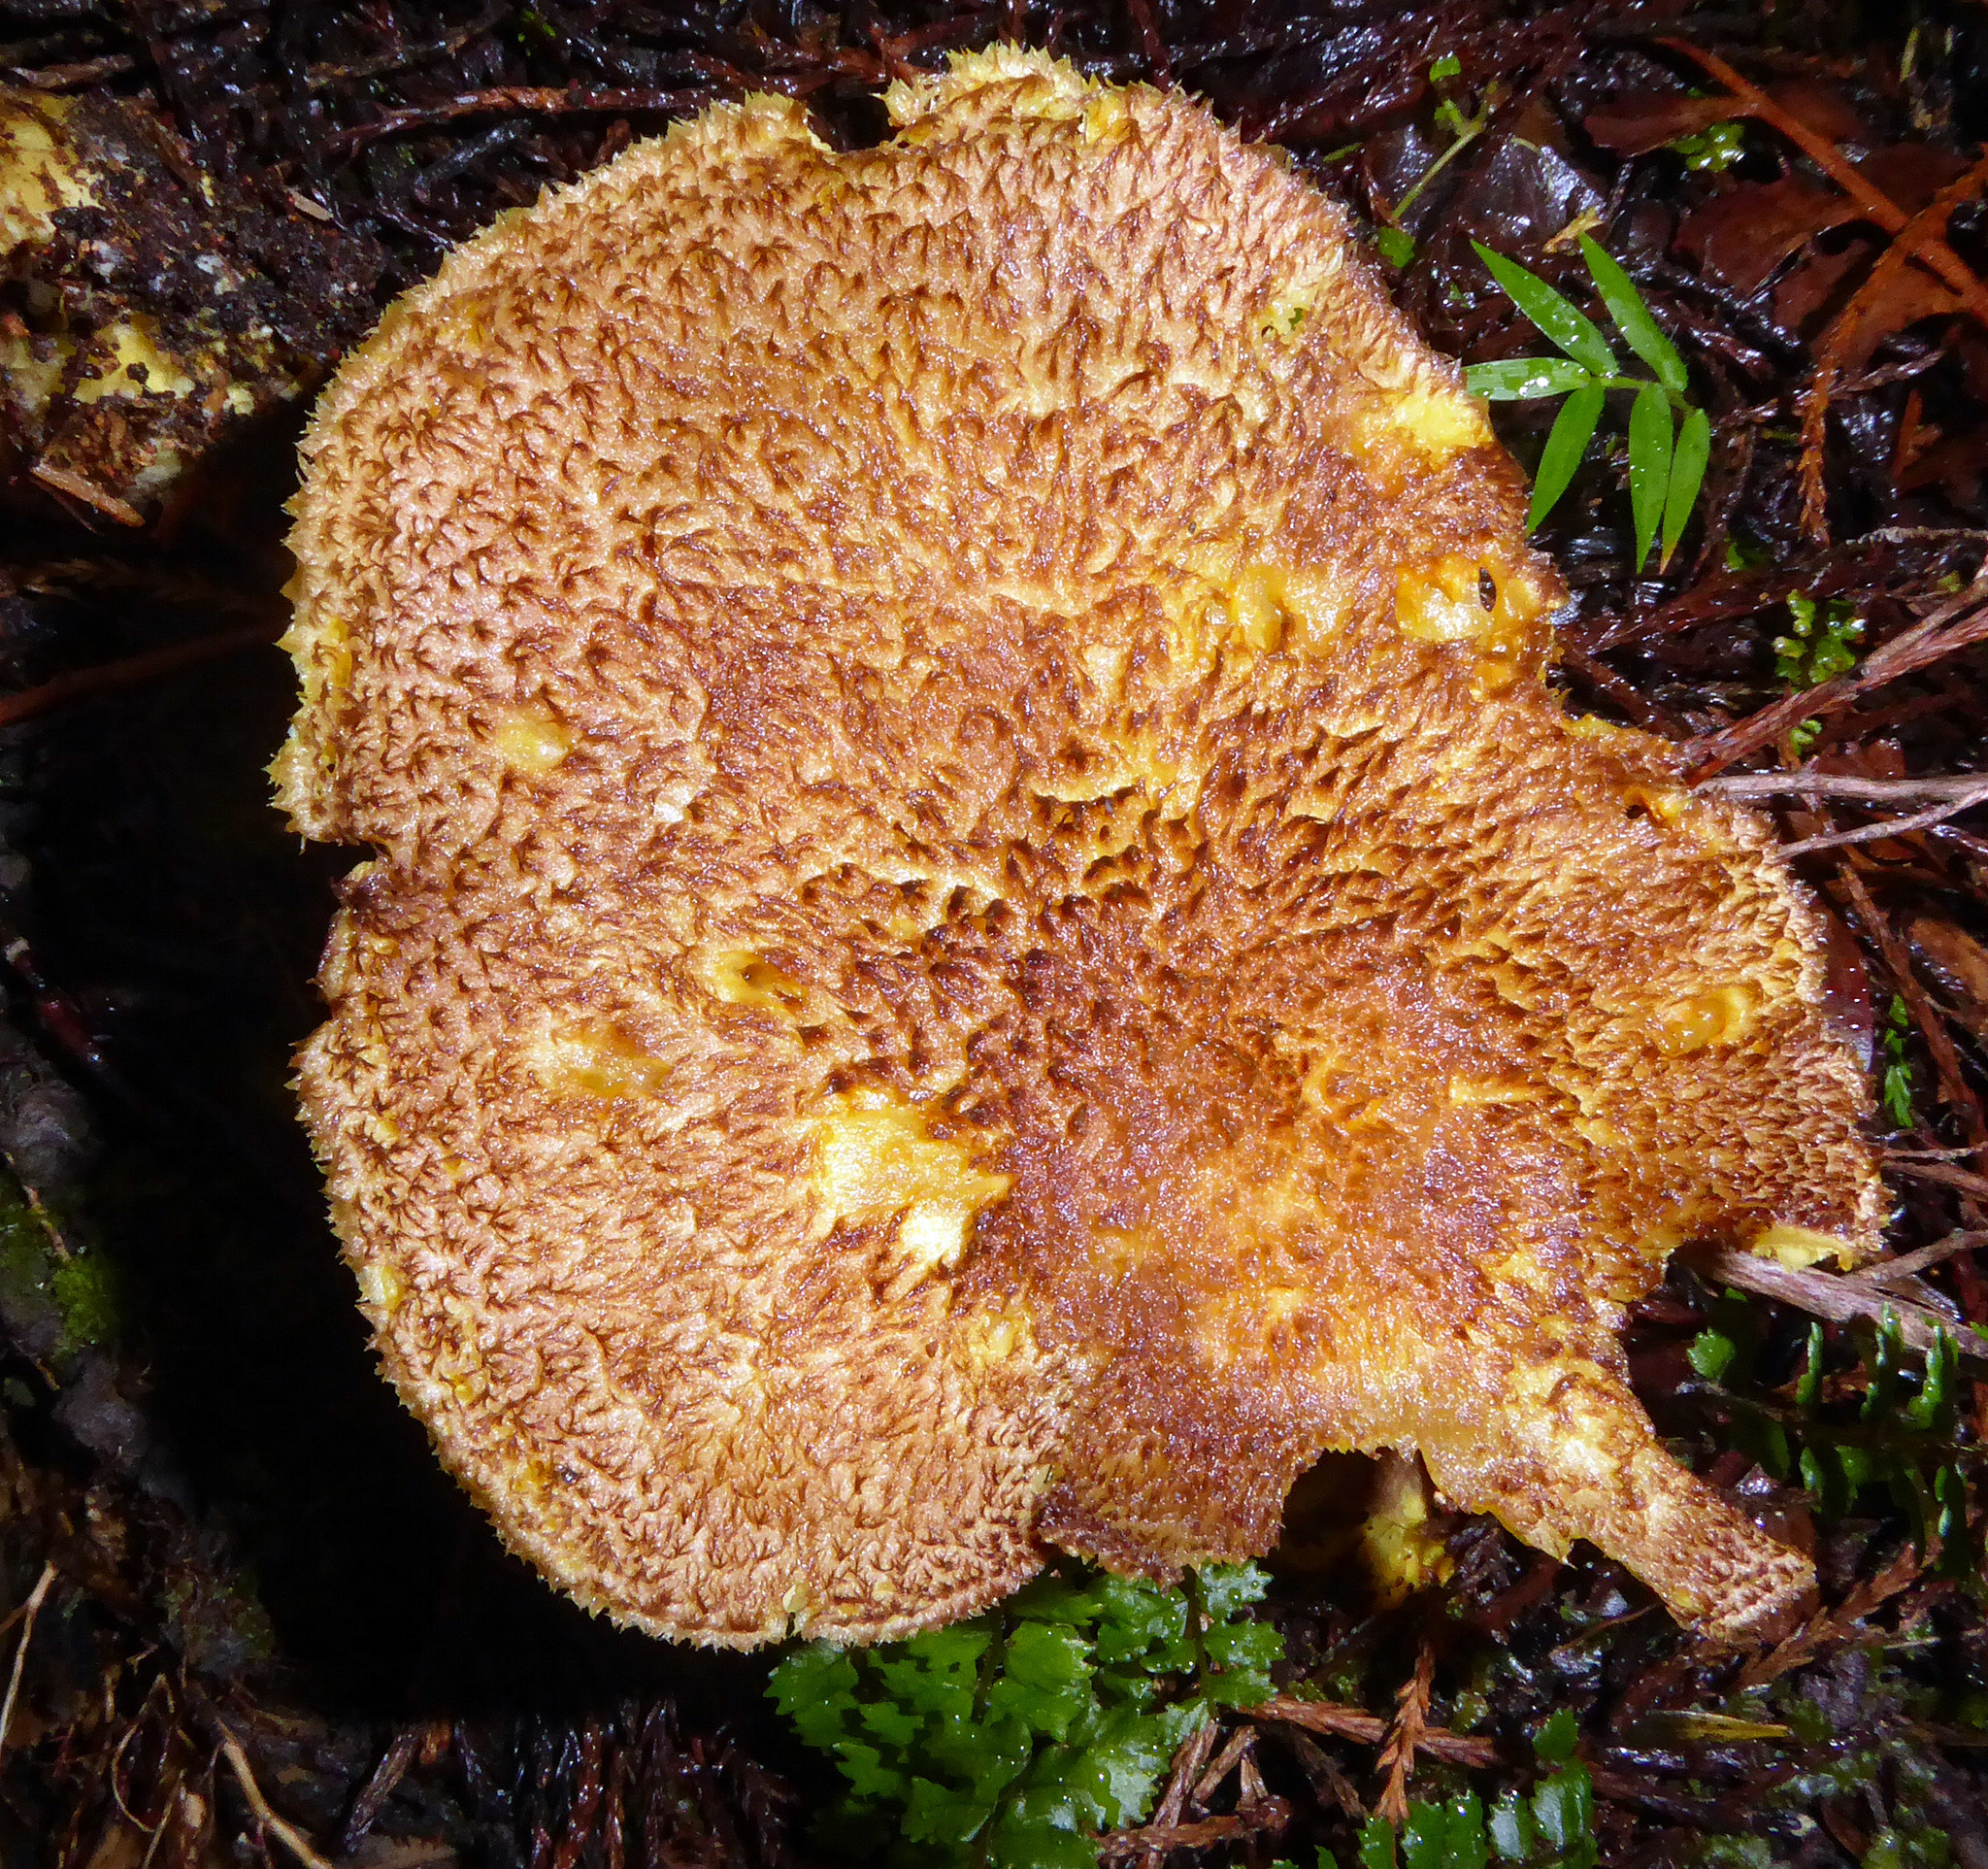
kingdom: Fungi
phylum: Basidiomycota
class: Agaricomycetes
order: Agaricales
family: Tricholomataceae
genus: Tricholomopsis
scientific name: Tricholomopsis scabra
